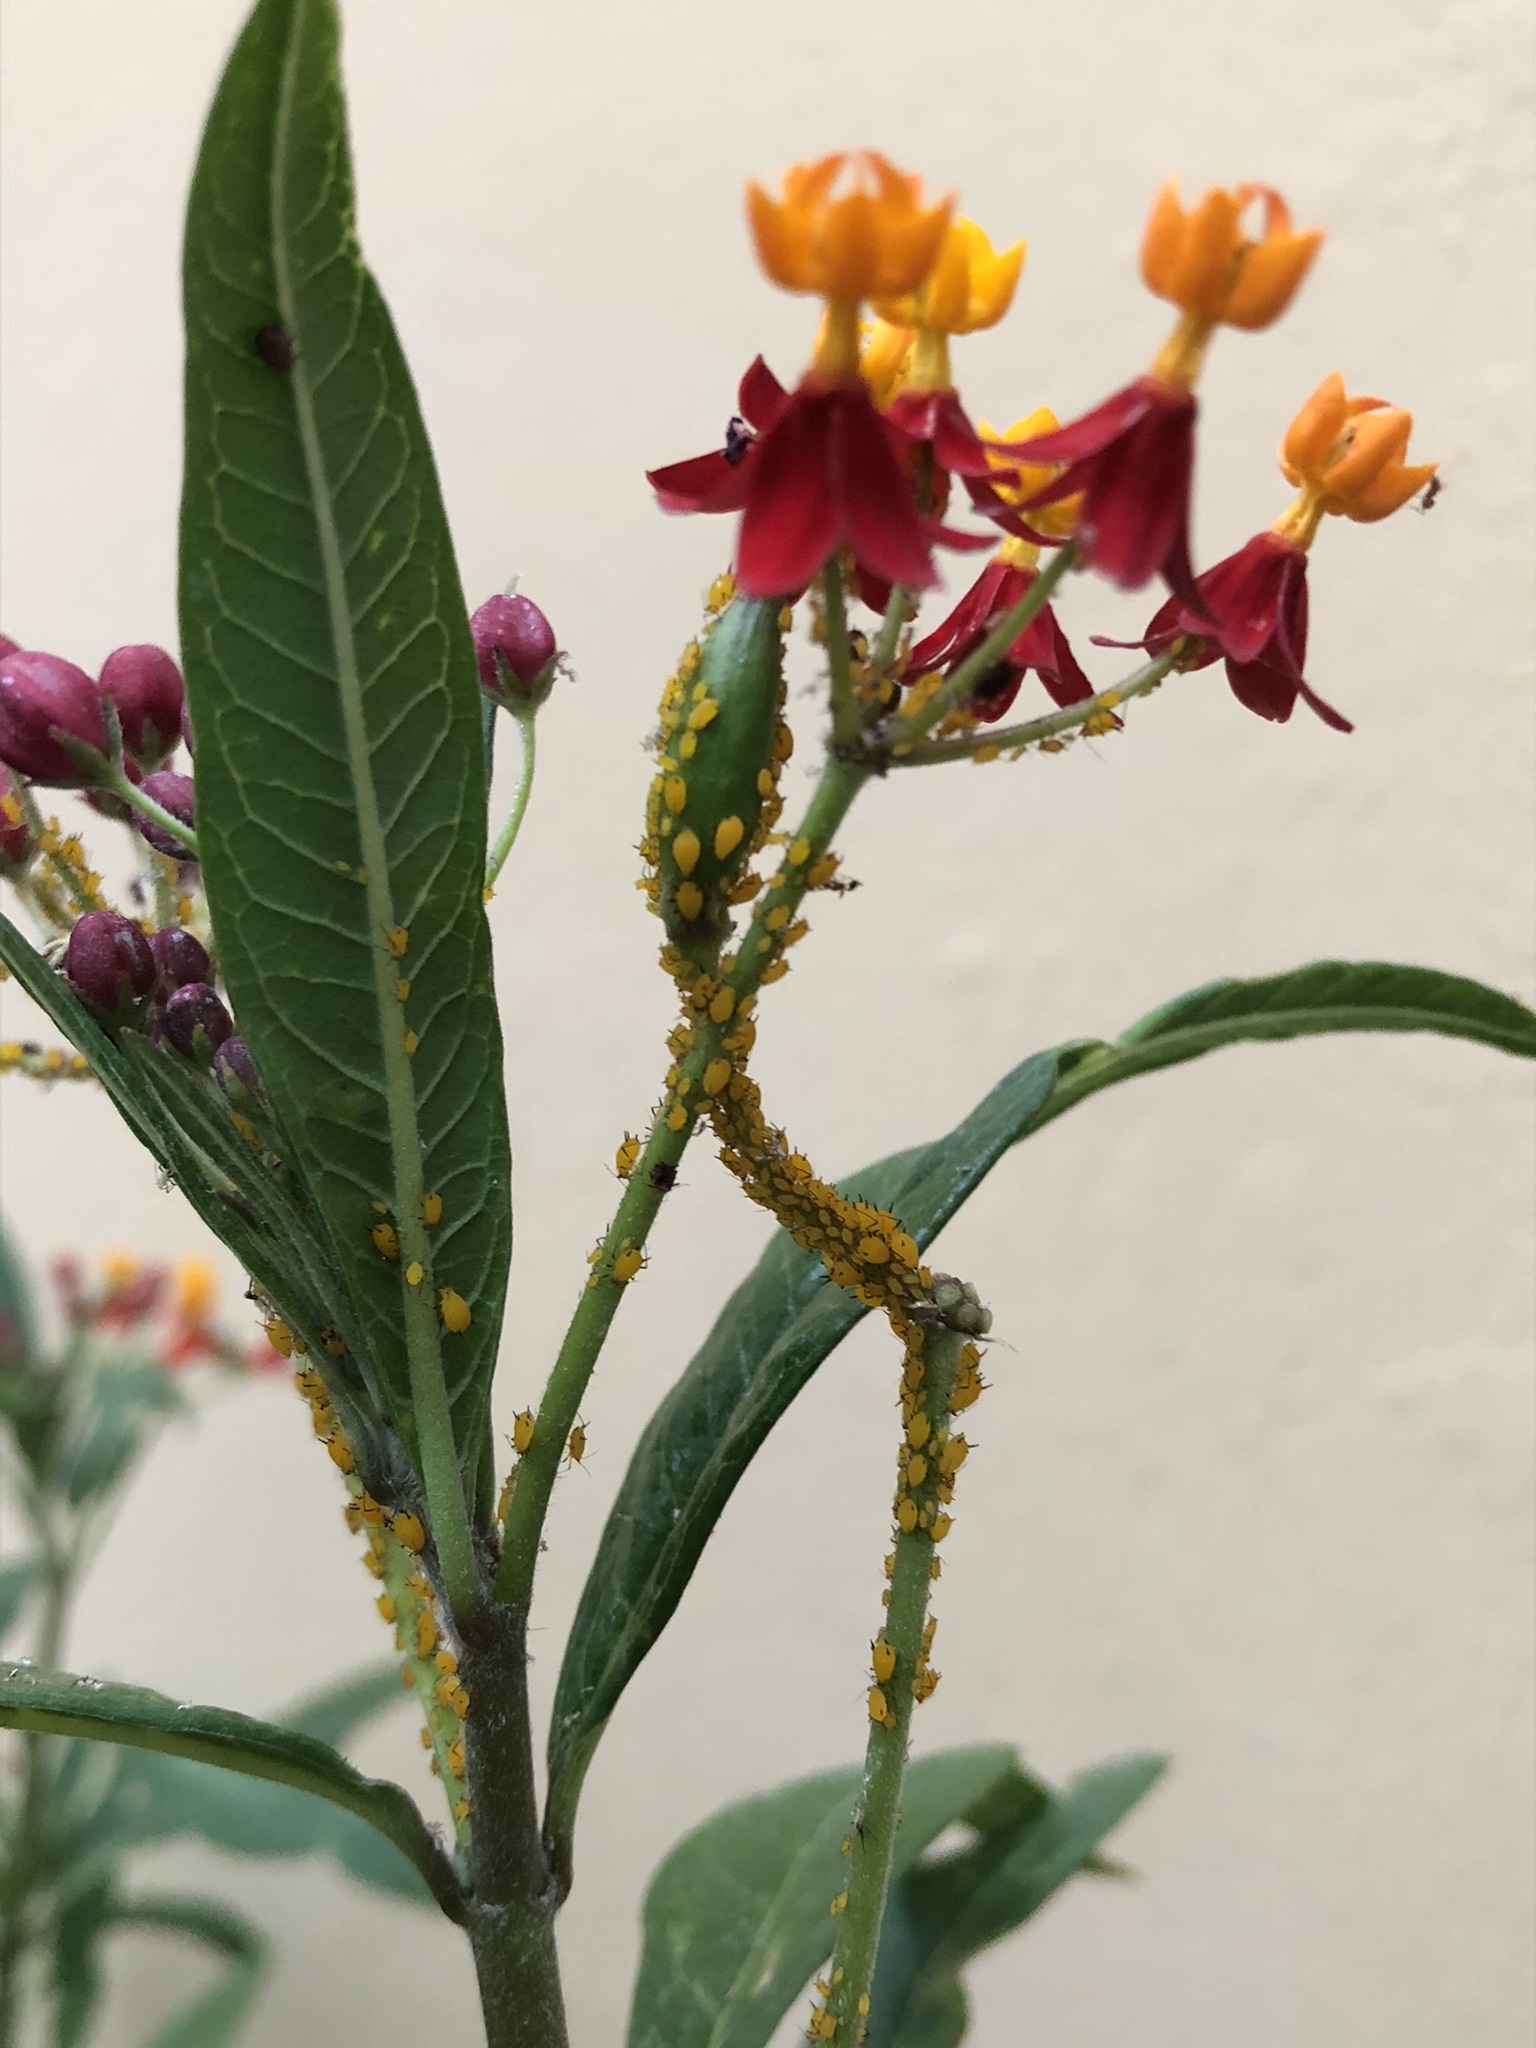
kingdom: Plantae
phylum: Tracheophyta
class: Magnoliopsida
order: Gentianales
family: Apocynaceae
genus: Asclepias
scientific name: Asclepias curassavica
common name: Bloodflower
